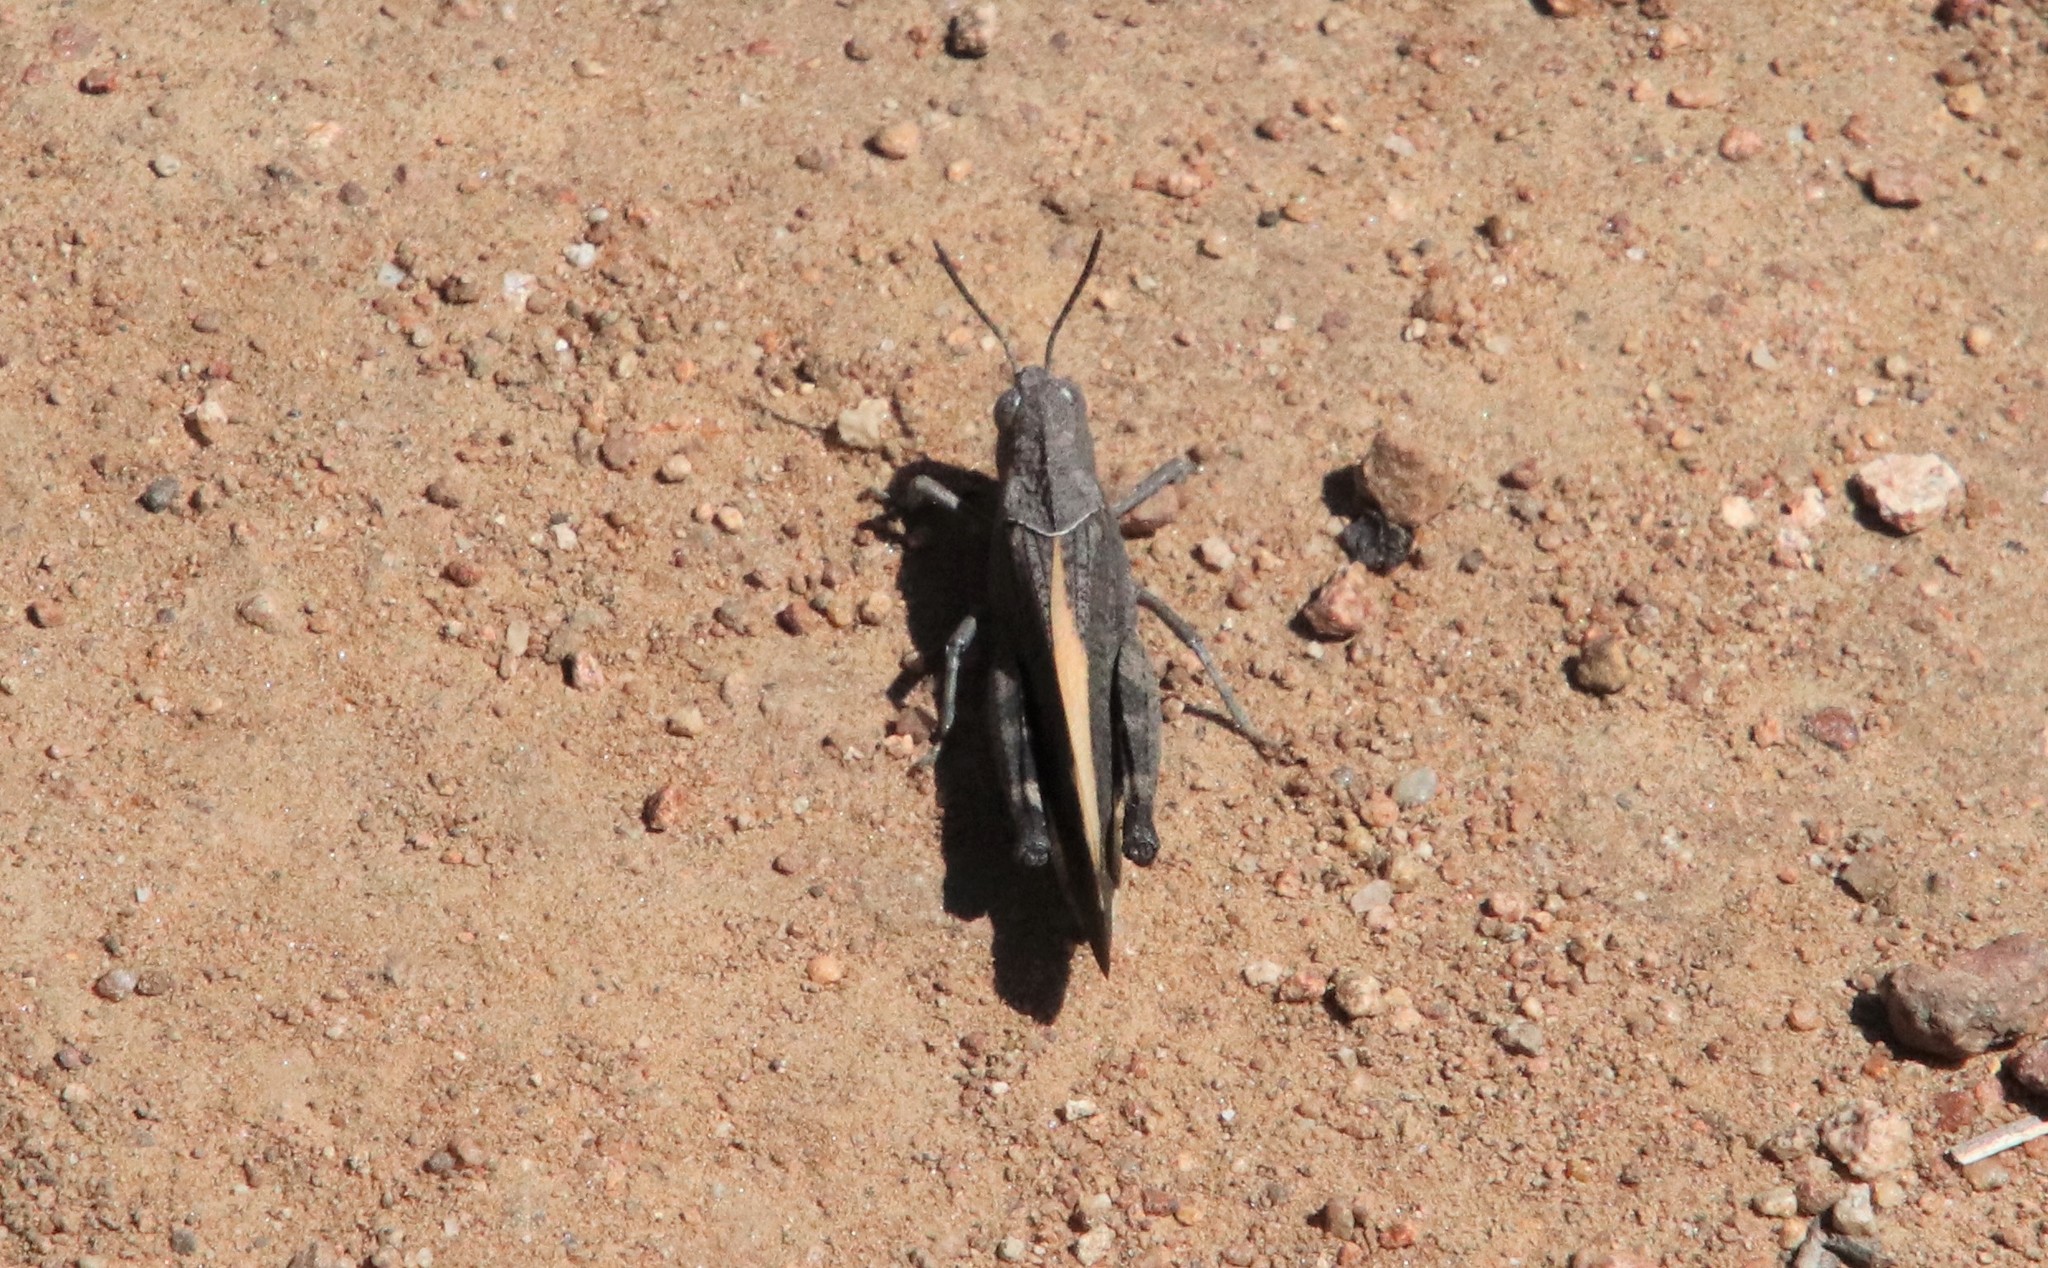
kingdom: Animalia
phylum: Arthropoda
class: Insecta
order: Orthoptera
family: Acrididae
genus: Arphia
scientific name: Arphia ramona
